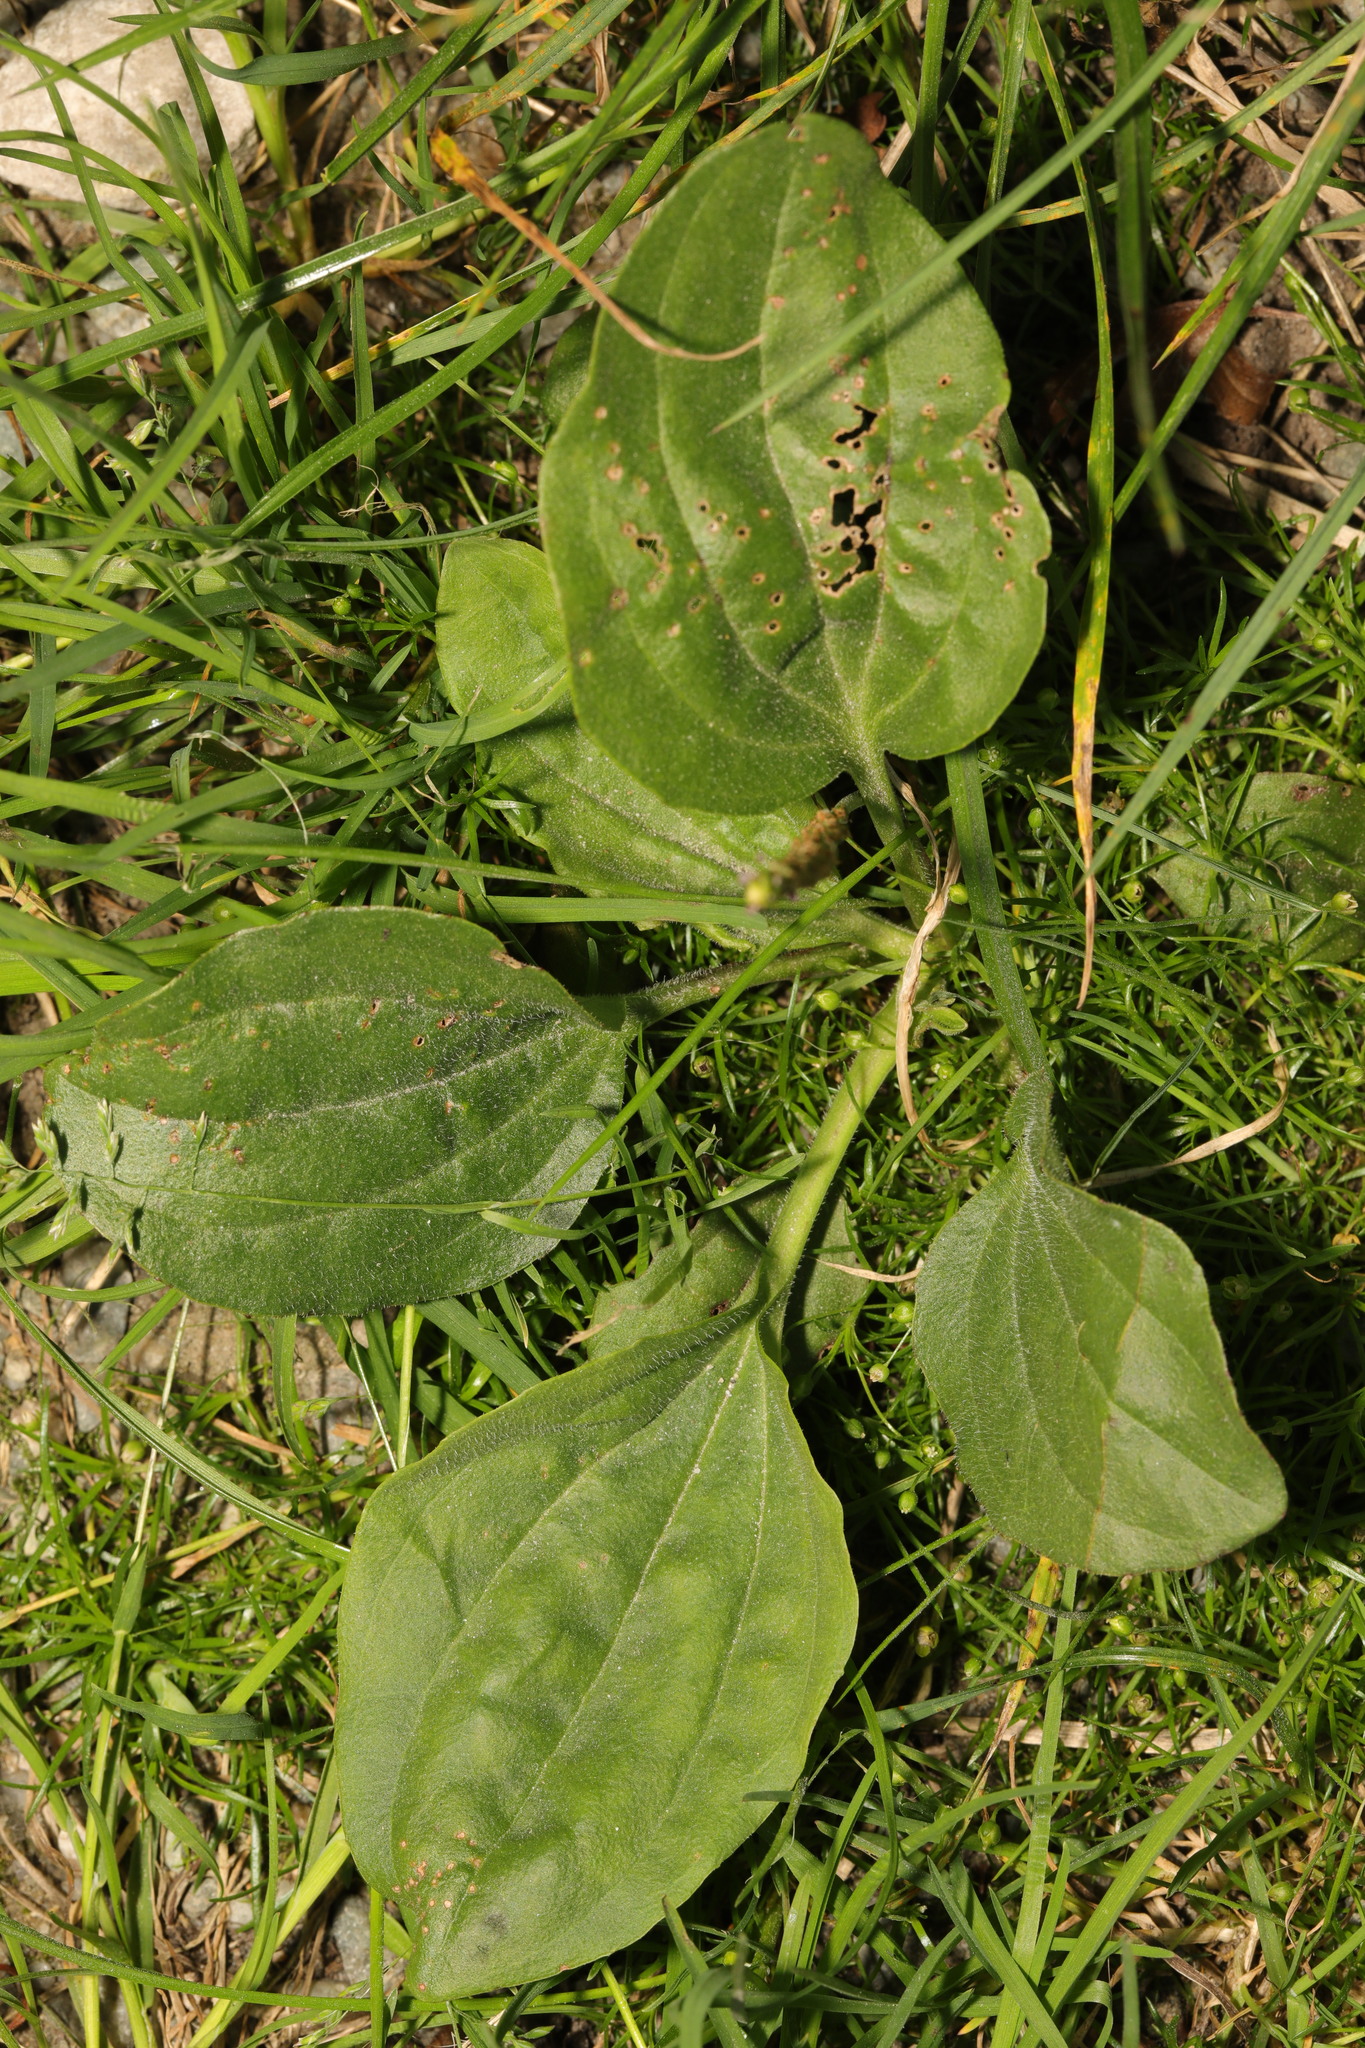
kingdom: Plantae
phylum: Tracheophyta
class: Magnoliopsida
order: Lamiales
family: Plantaginaceae
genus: Plantago
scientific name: Plantago major
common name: Common plantain
